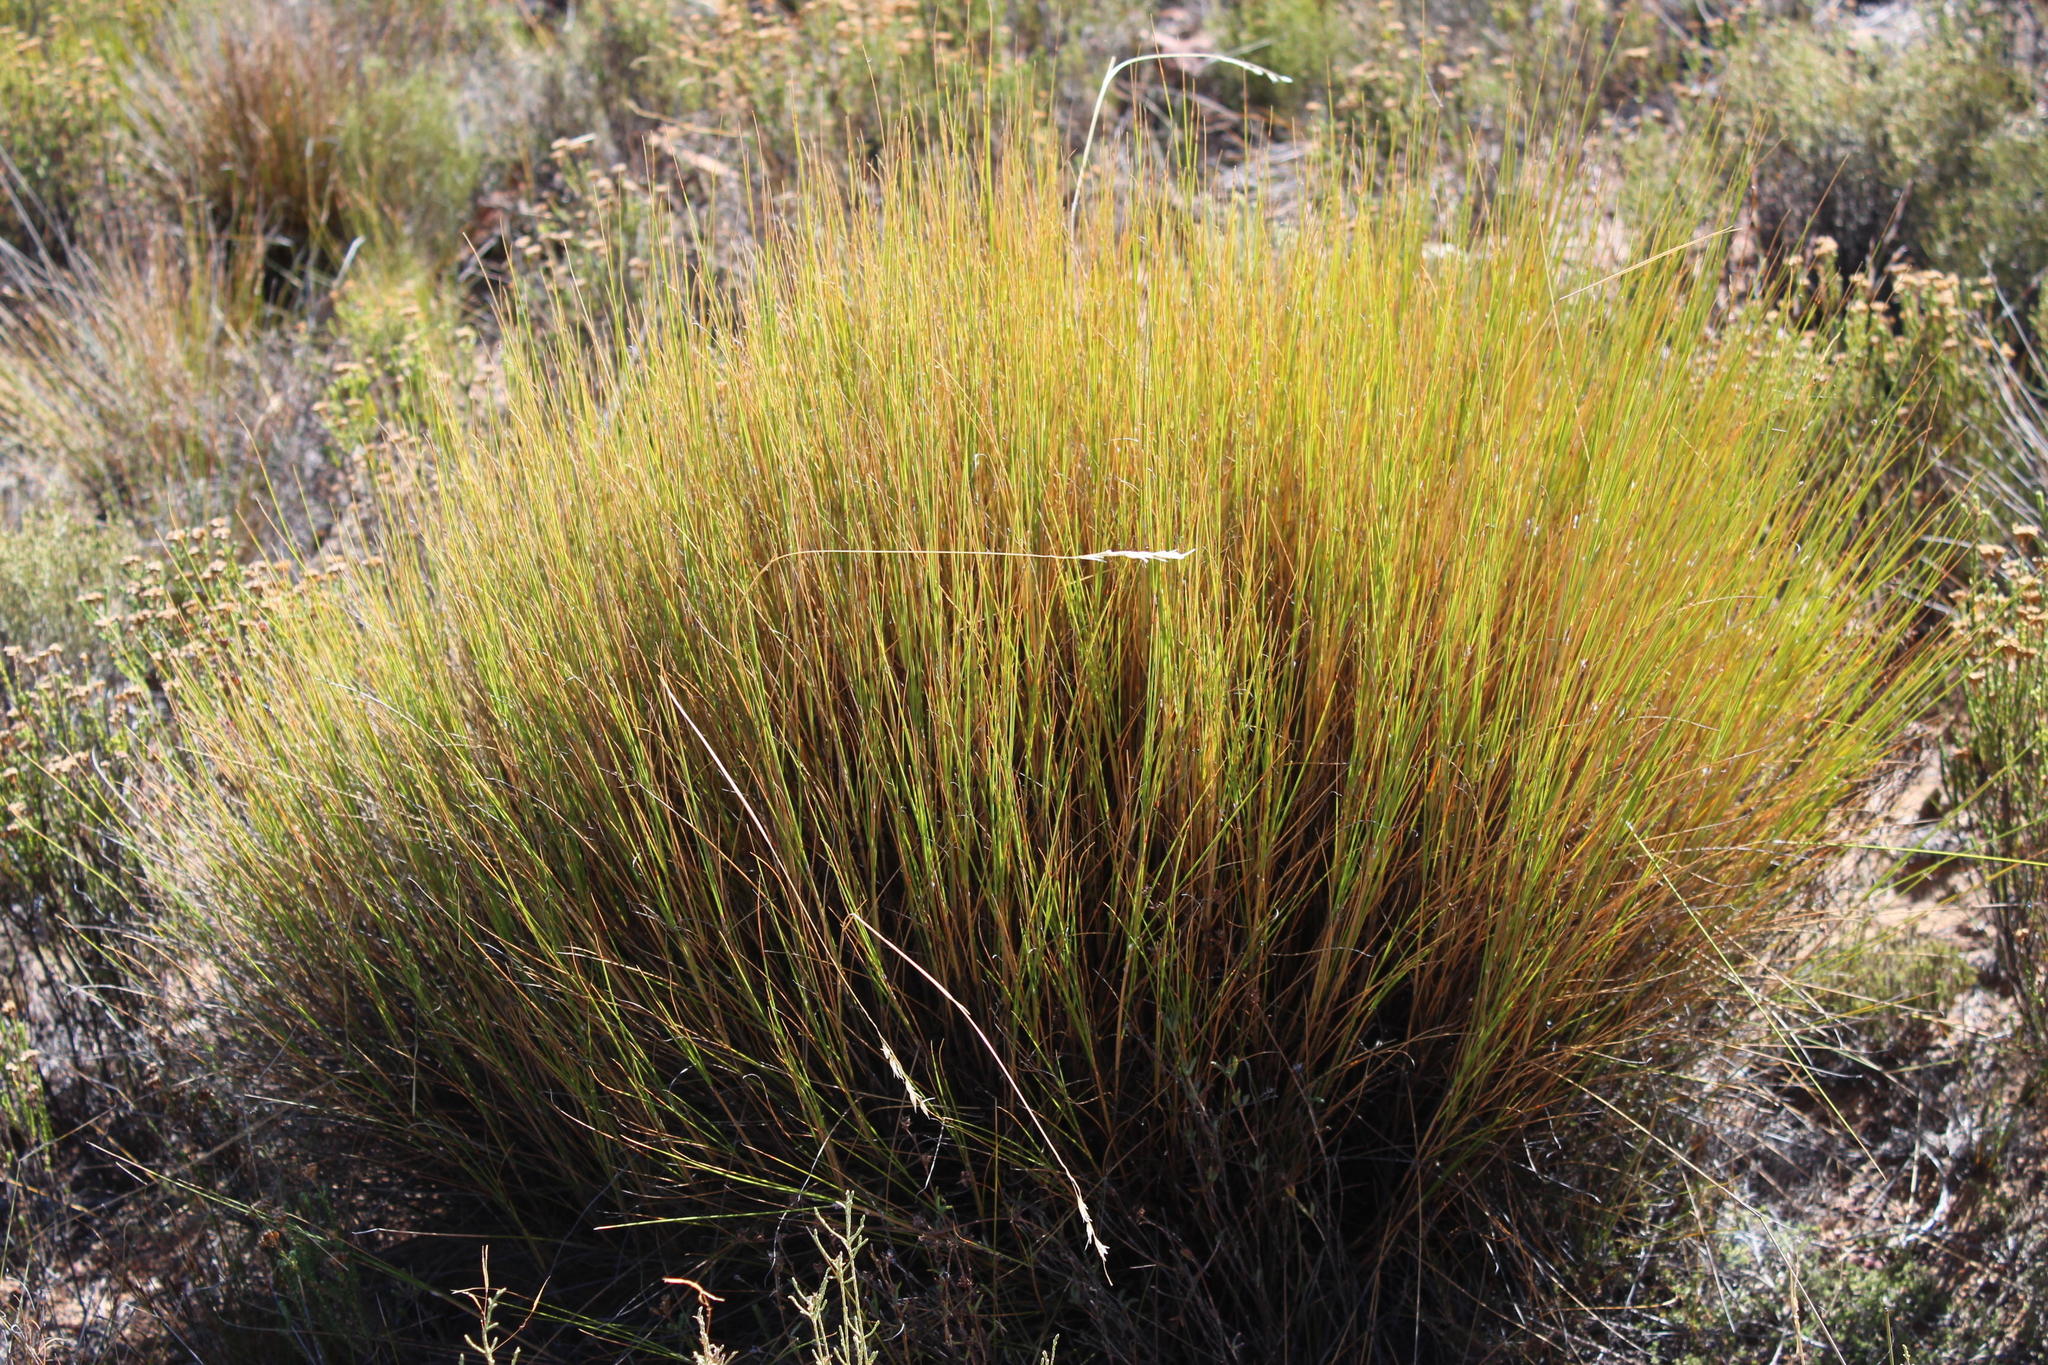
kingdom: Plantae
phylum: Tracheophyta
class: Liliopsida
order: Poales
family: Poaceae
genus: Pentameris
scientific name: Pentameris macrocalycina
